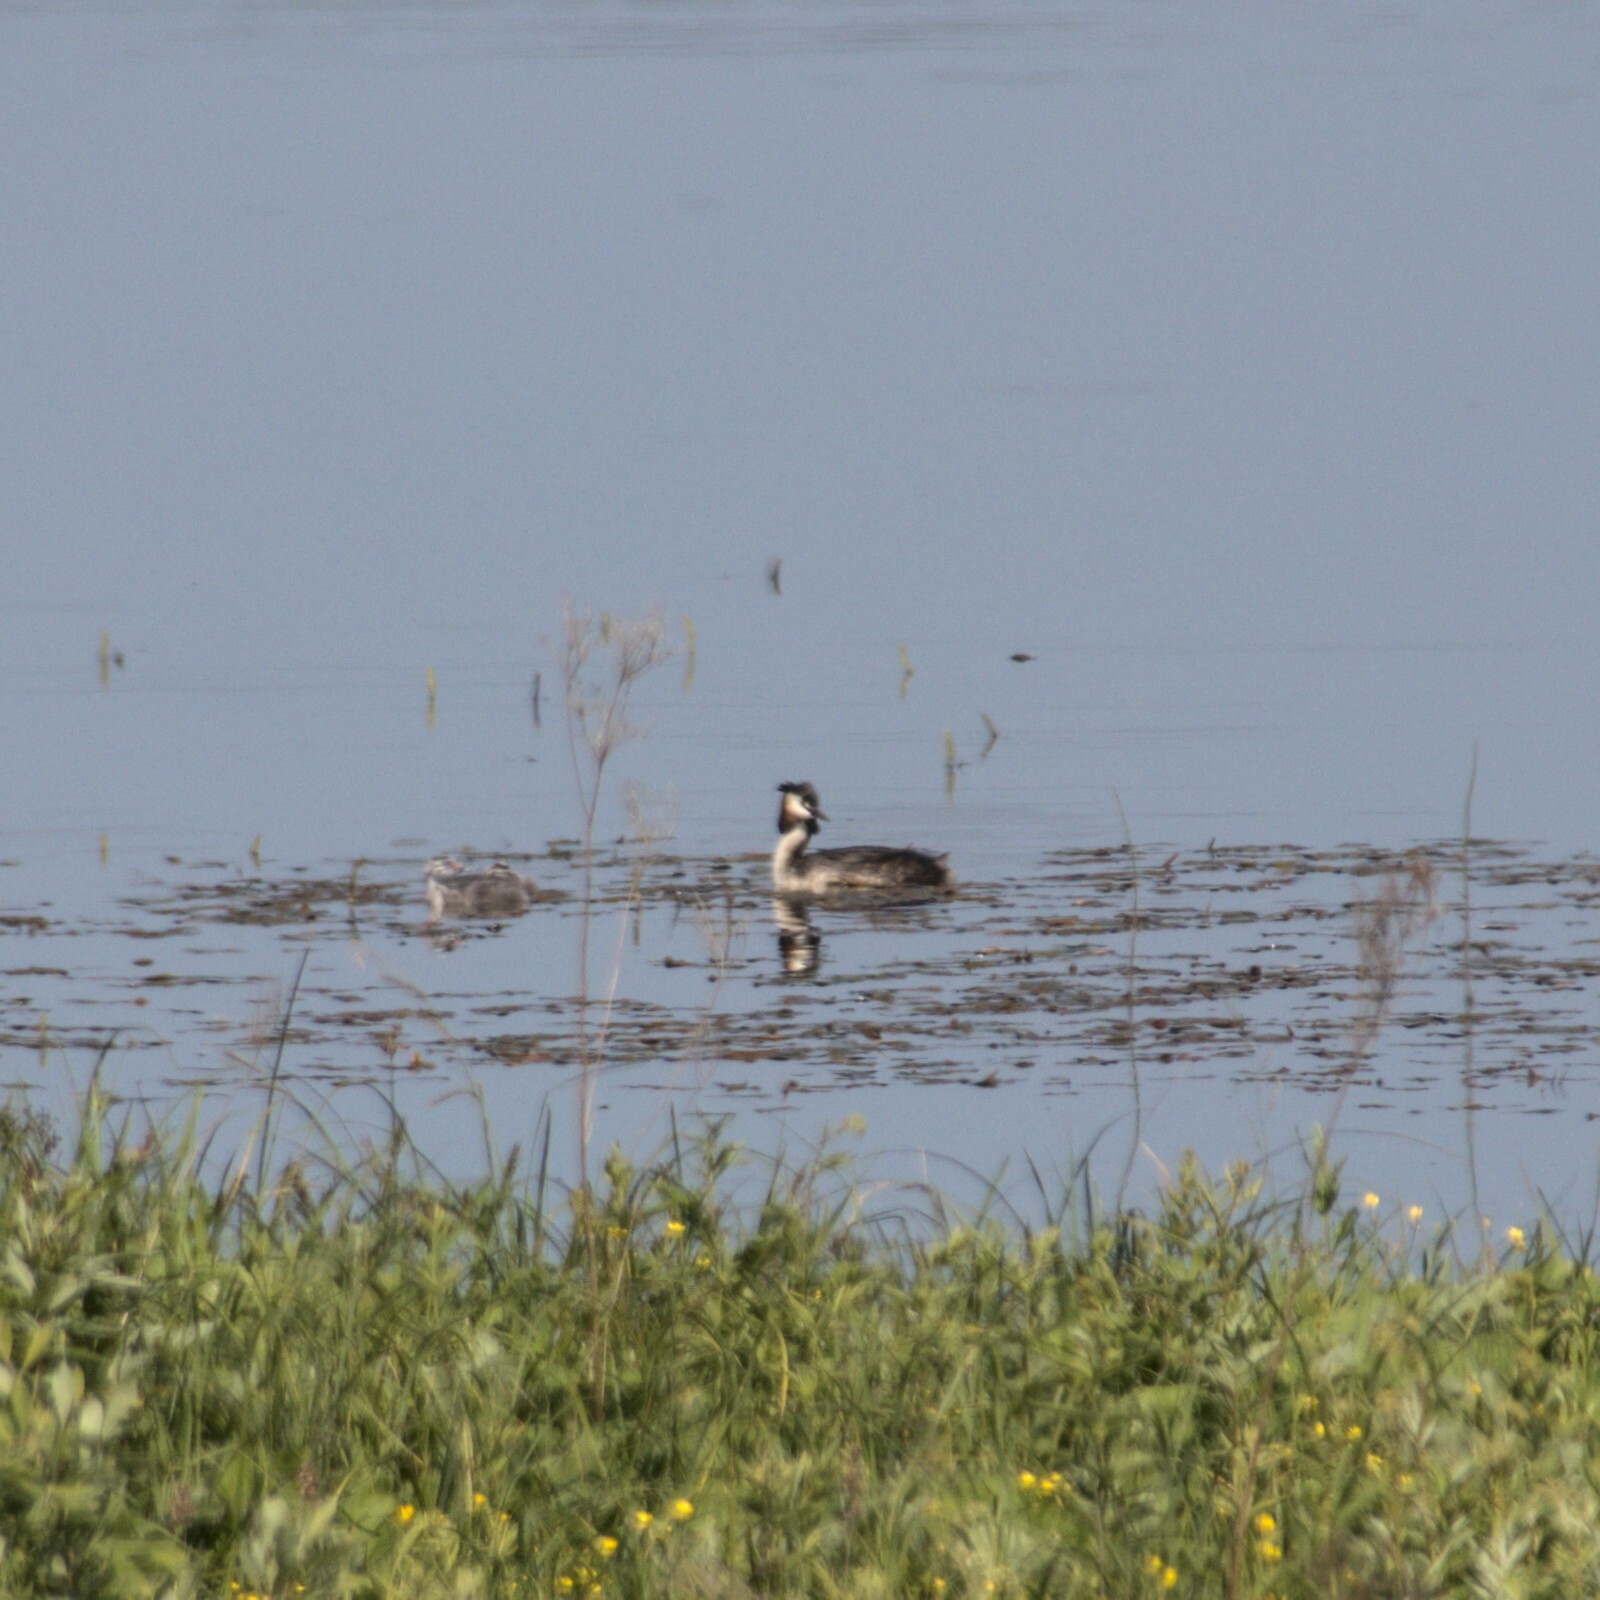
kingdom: Animalia
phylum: Chordata
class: Aves
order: Podicipediformes
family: Podicipedidae
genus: Podiceps
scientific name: Podiceps cristatus
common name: Great crested grebe
